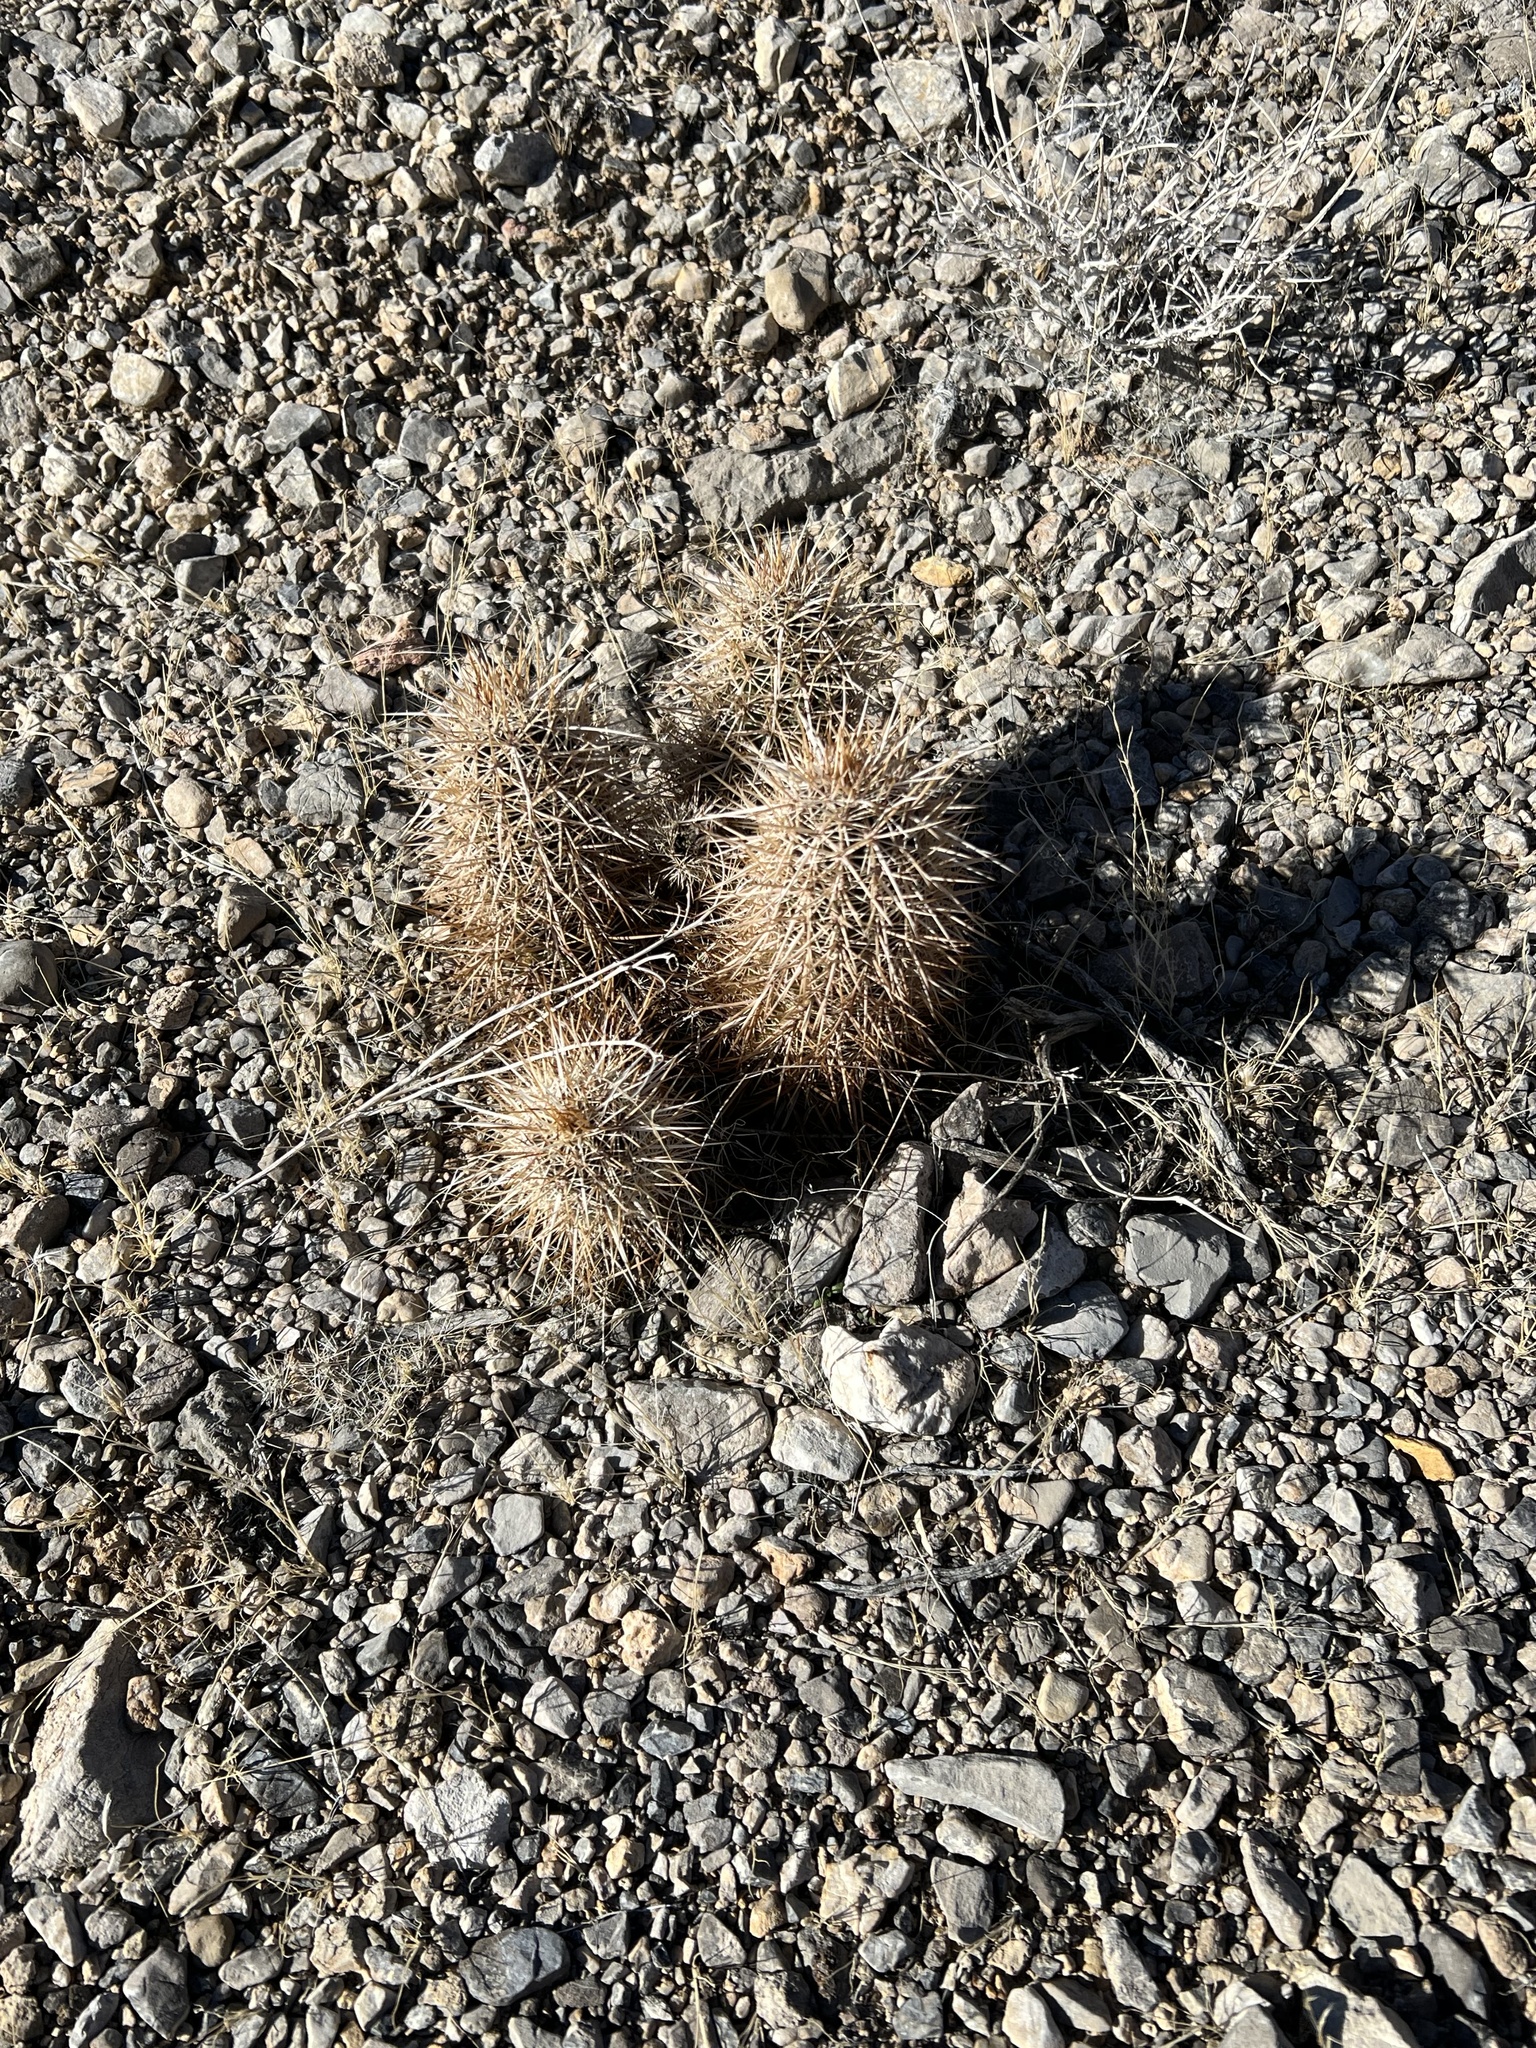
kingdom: Plantae
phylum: Tracheophyta
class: Magnoliopsida
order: Caryophyllales
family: Cactaceae
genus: Echinocereus
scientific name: Echinocereus engelmannii
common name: Engelmann's hedgehog cactus
